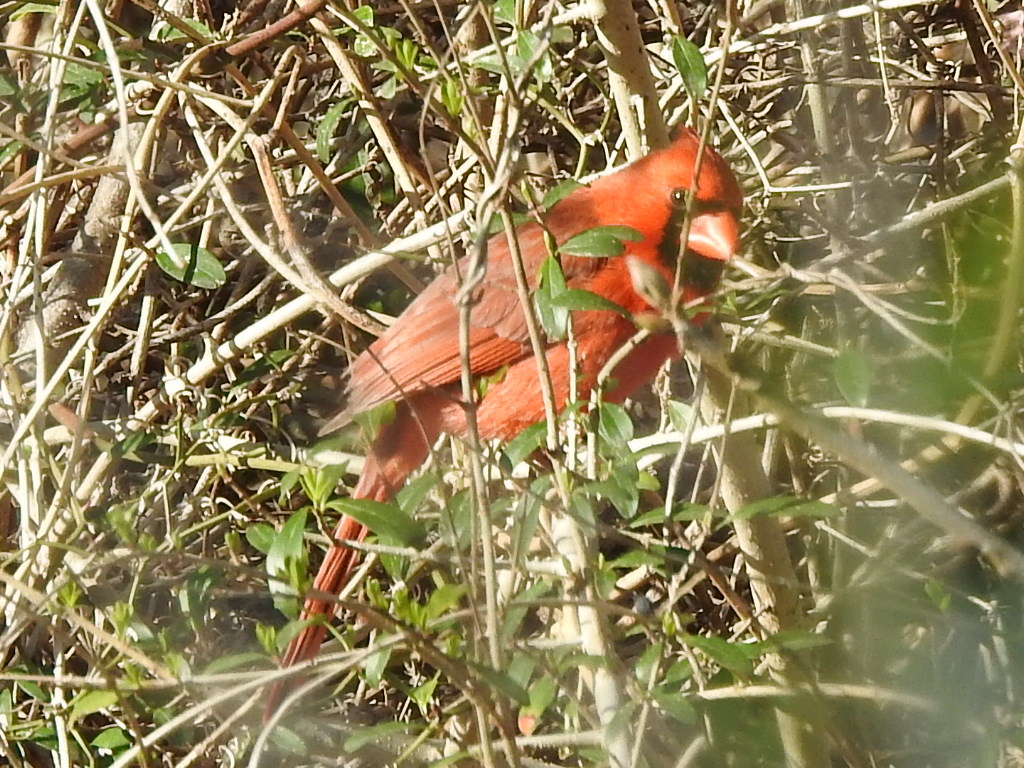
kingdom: Animalia
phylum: Chordata
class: Aves
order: Passeriformes
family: Cardinalidae
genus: Cardinalis
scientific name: Cardinalis cardinalis
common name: Northern cardinal
